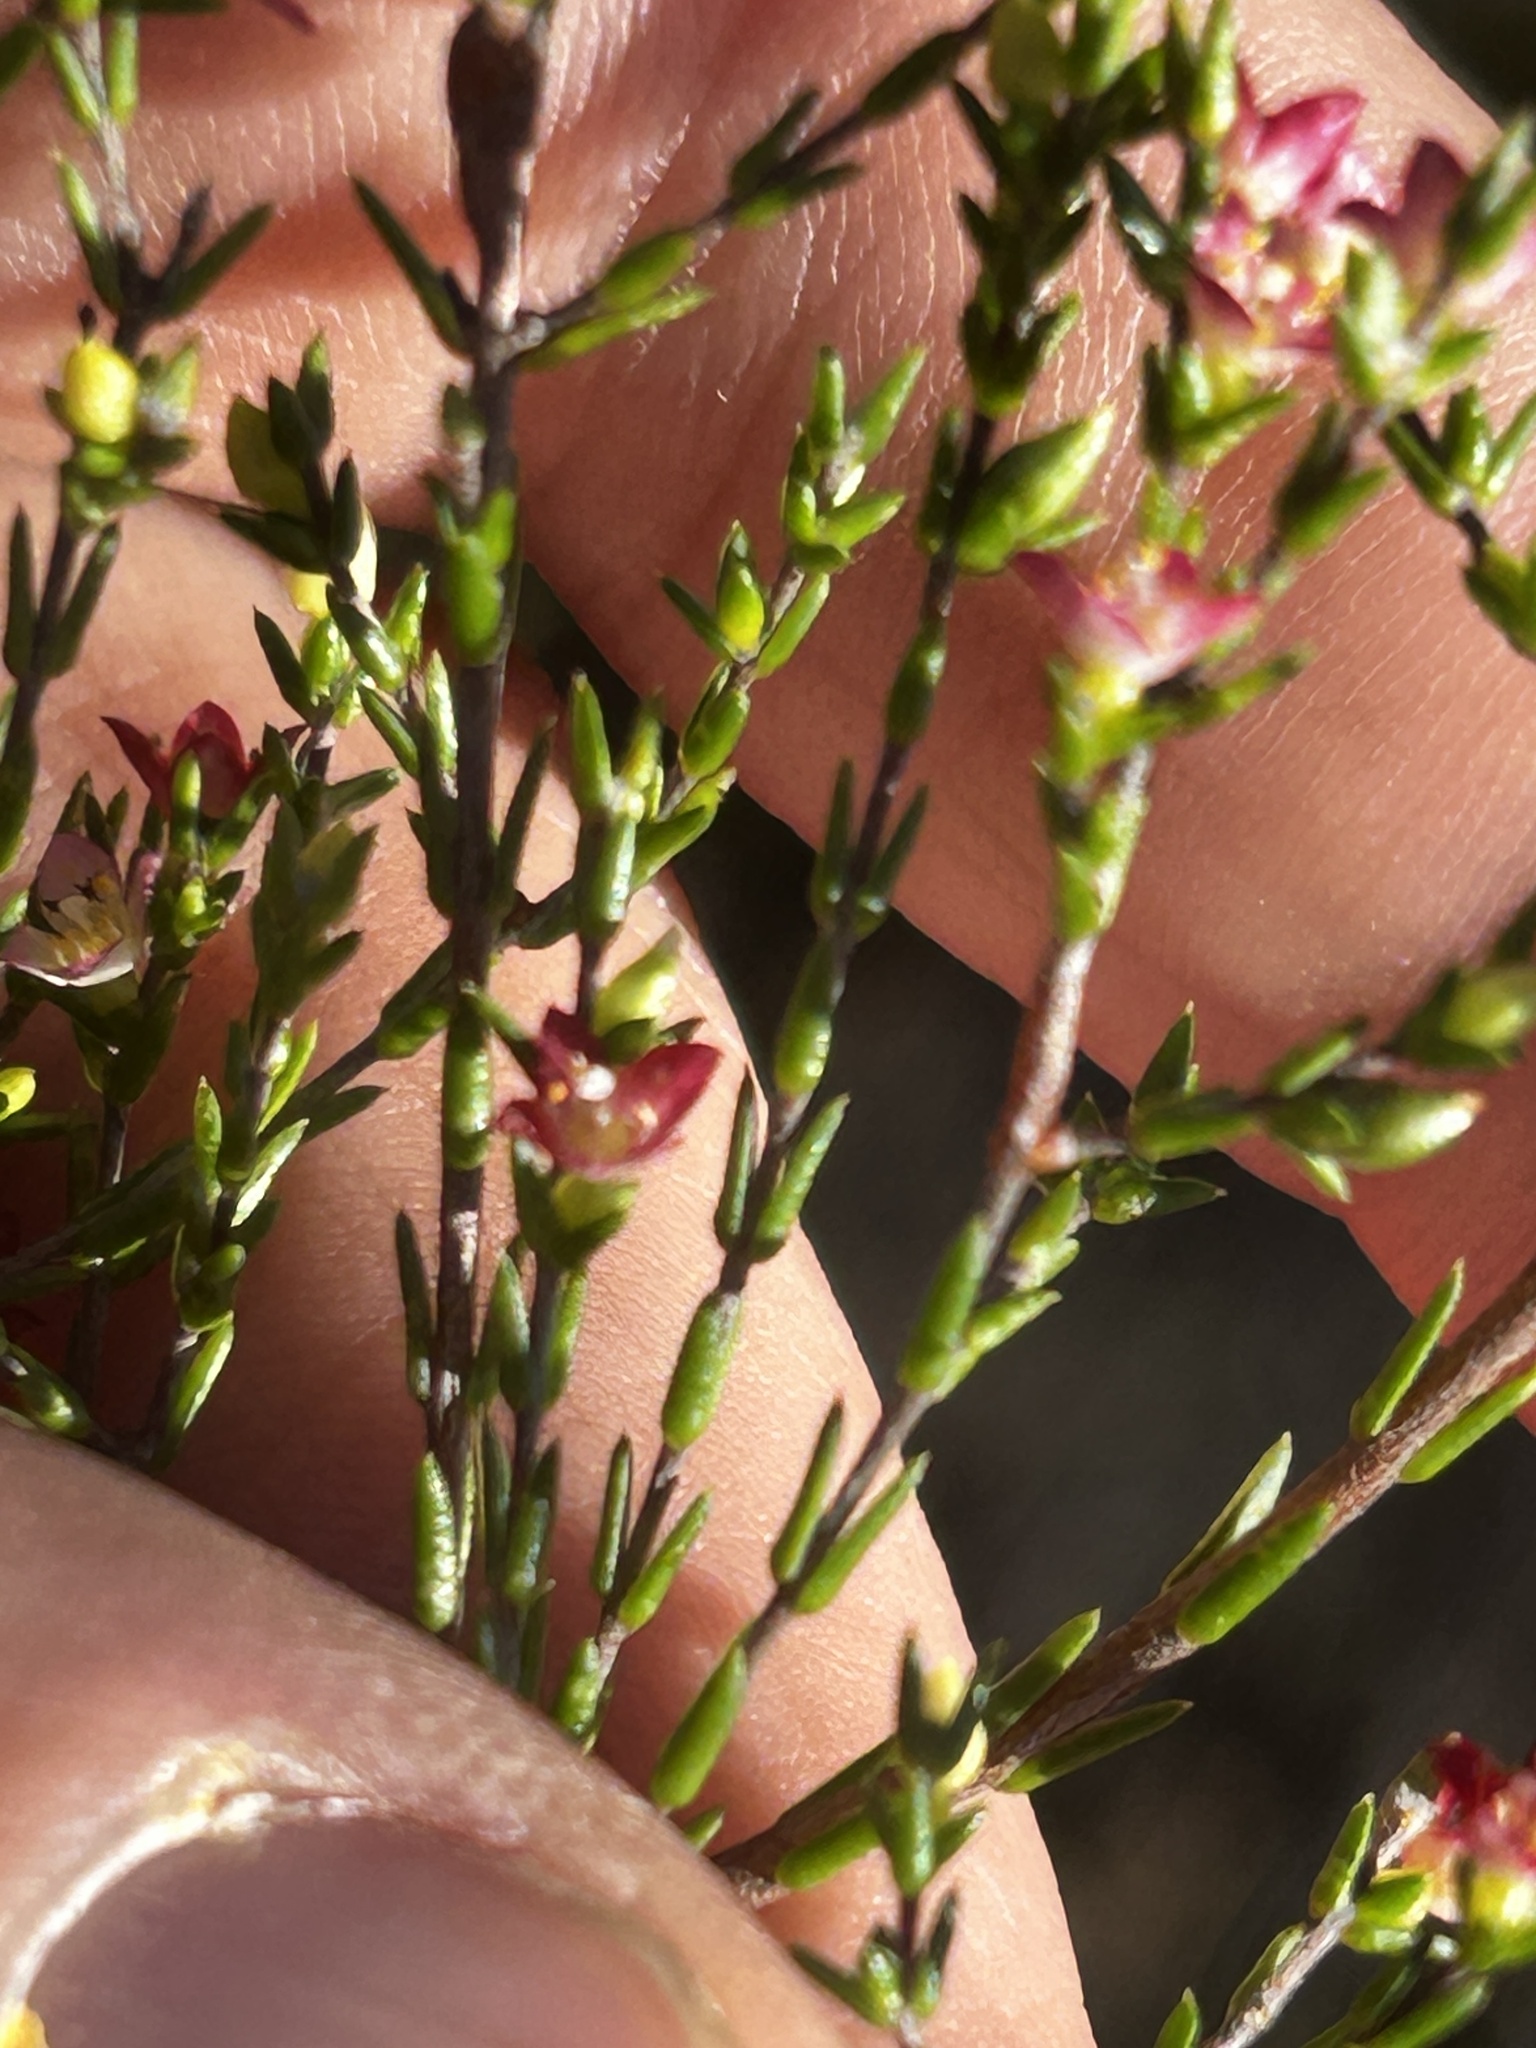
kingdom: Plantae
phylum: Tracheophyta
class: Magnoliopsida
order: Malvales
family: Thymelaeaceae
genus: Lachnaea
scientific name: Lachnaea axillaris
